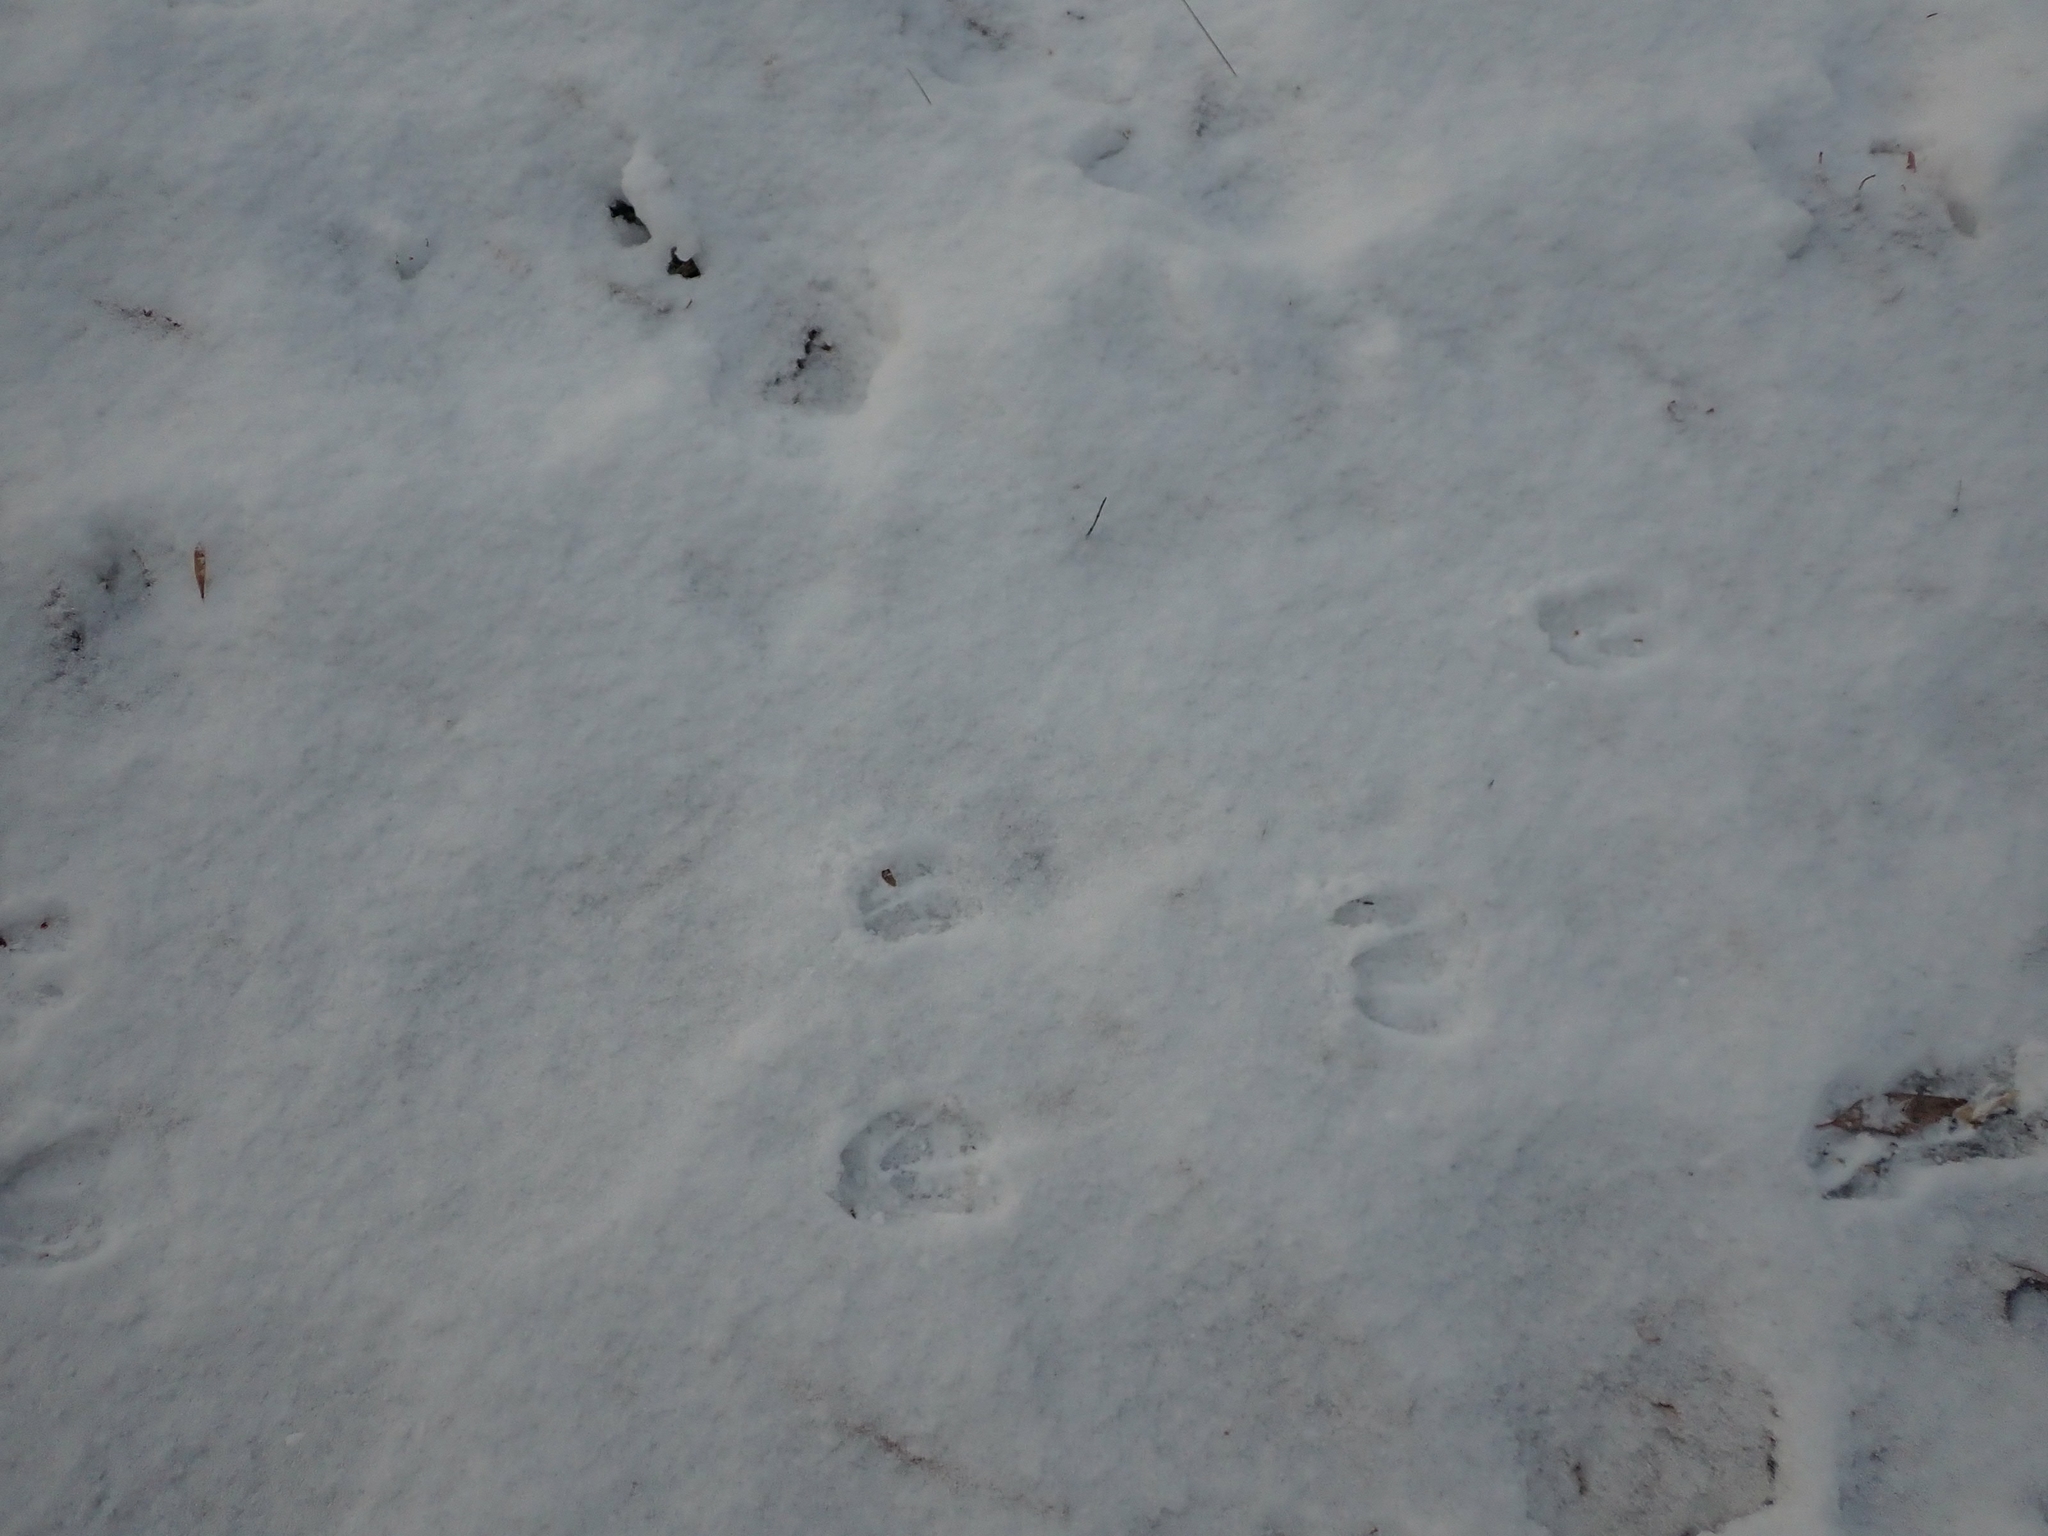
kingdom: Animalia
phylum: Chordata
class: Mammalia
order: Artiodactyla
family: Cervidae
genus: Odocoileus
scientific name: Odocoileus virginianus
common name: White-tailed deer
